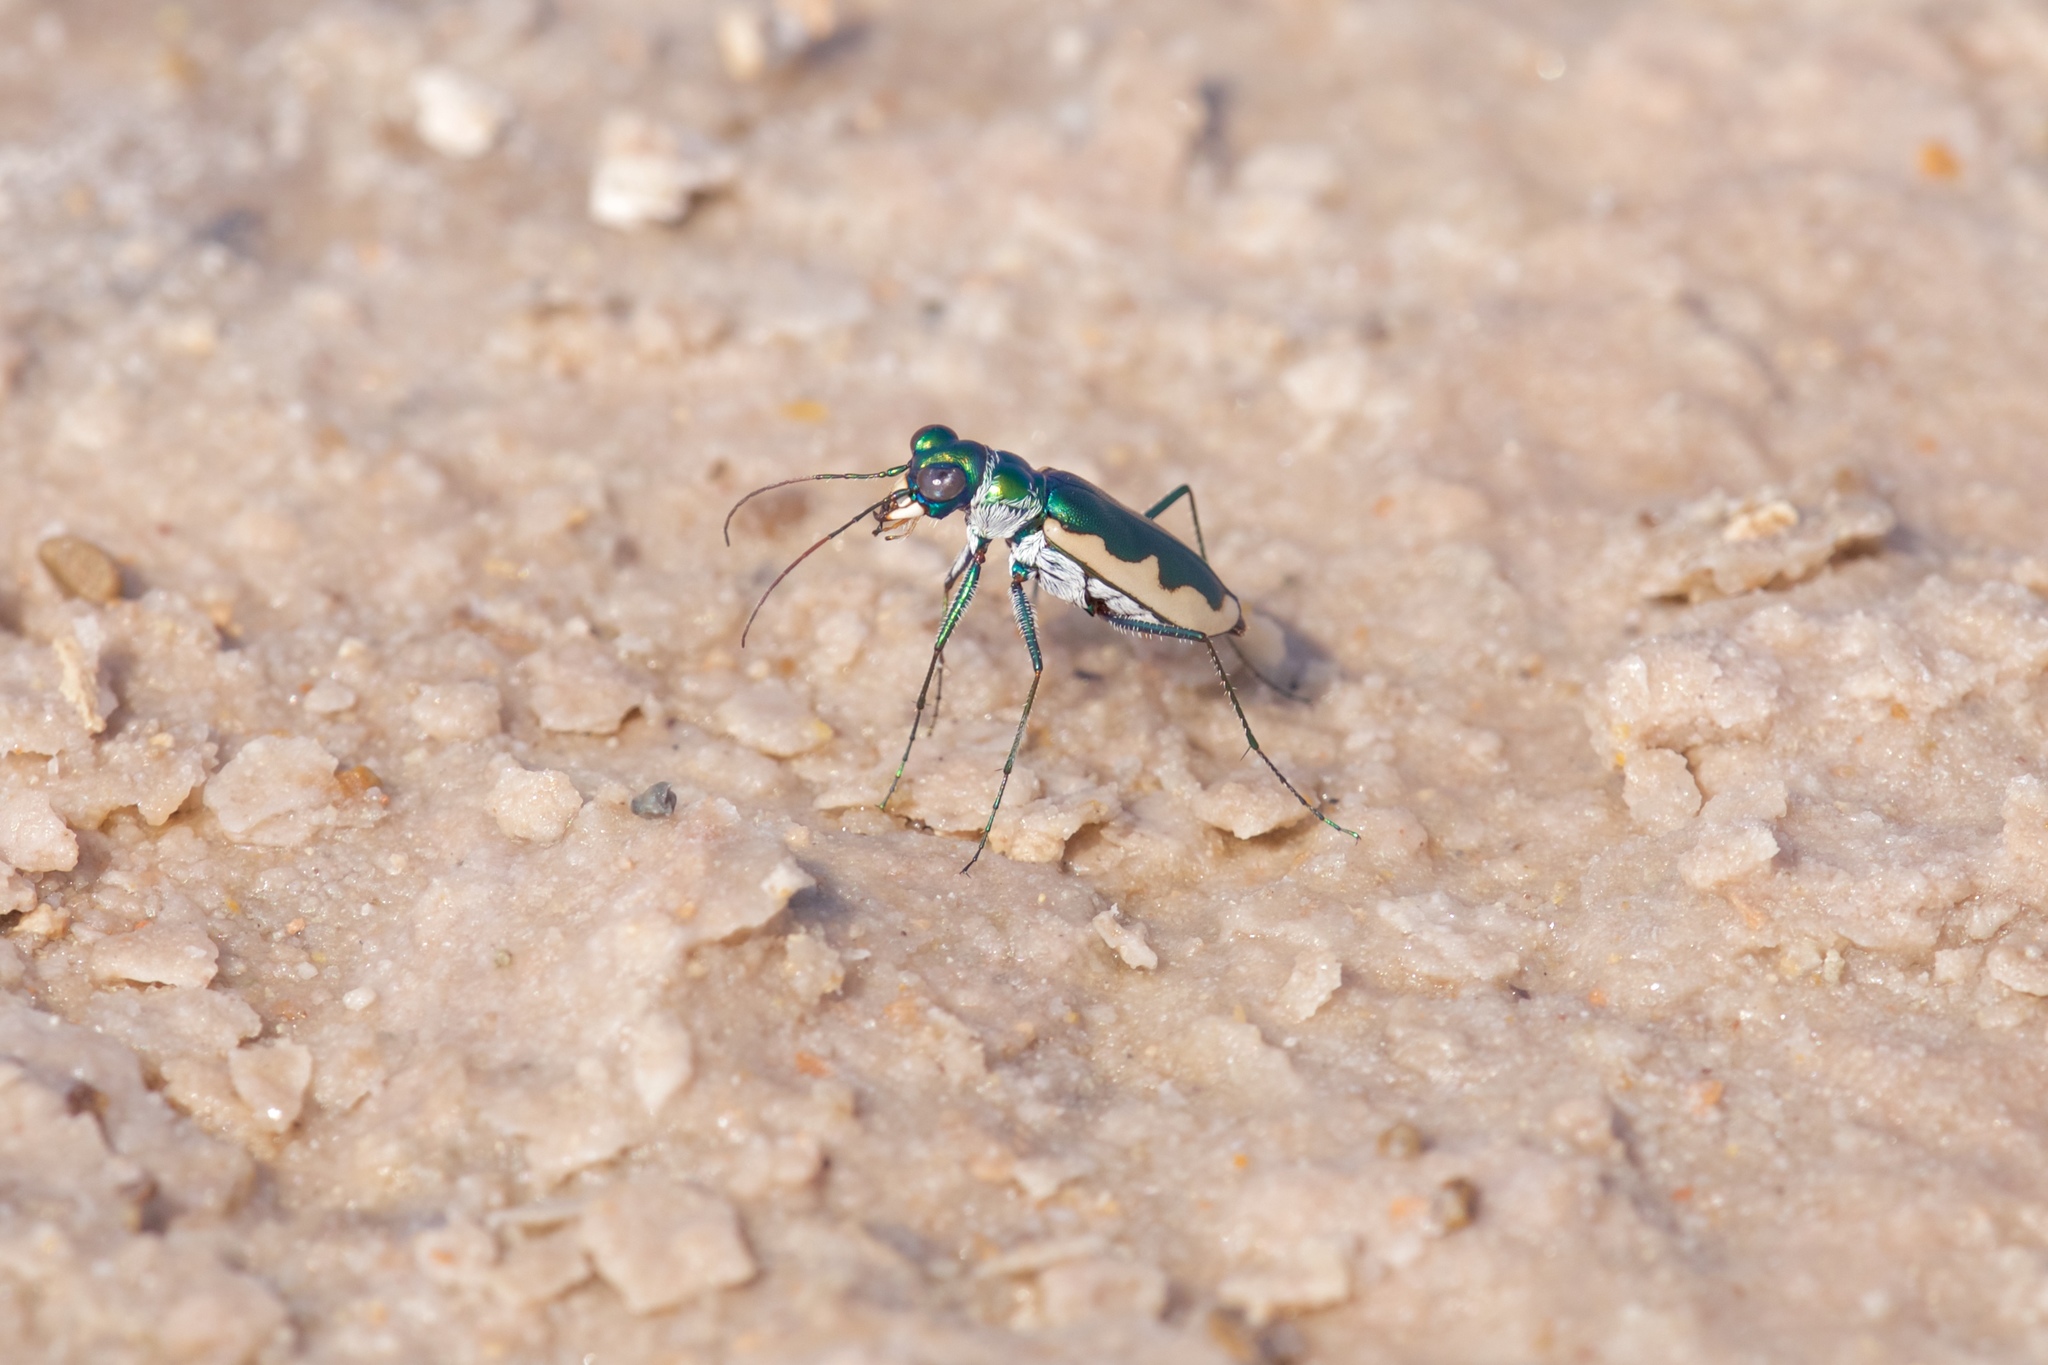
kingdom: Animalia
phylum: Arthropoda
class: Insecta
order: Coleoptera
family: Carabidae
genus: Eunota
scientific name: Eunota circumpicta
